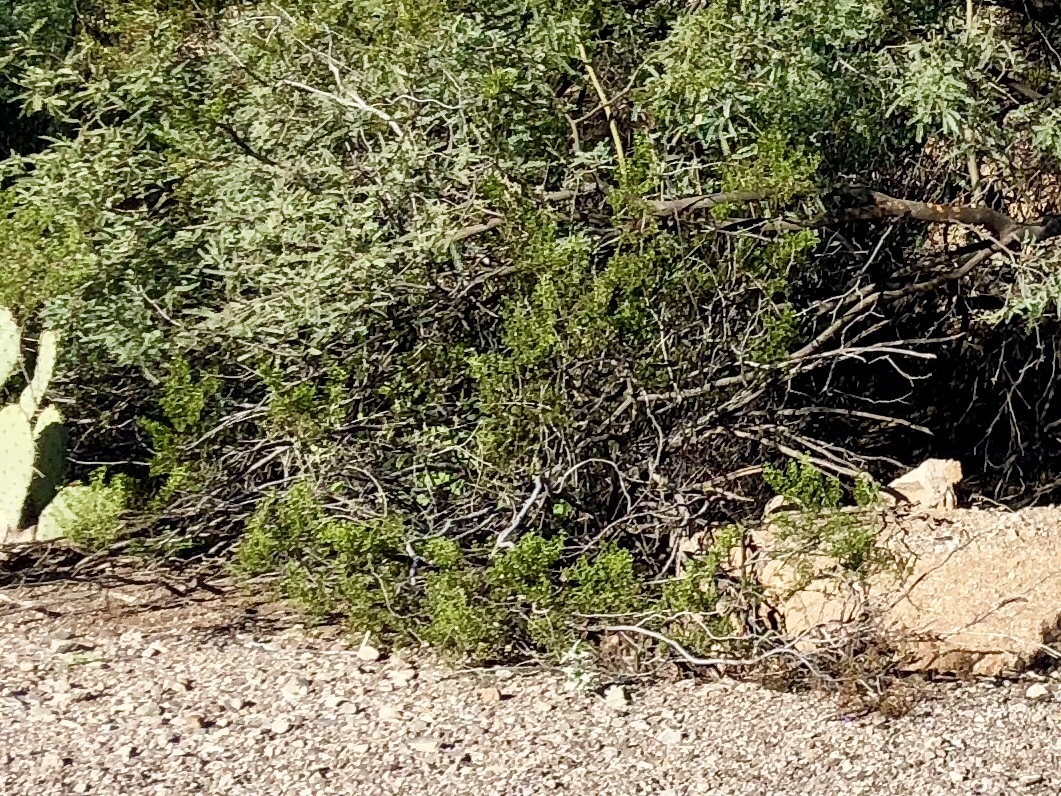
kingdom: Plantae
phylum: Tracheophyta
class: Magnoliopsida
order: Zygophyllales
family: Zygophyllaceae
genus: Larrea
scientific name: Larrea tridentata
